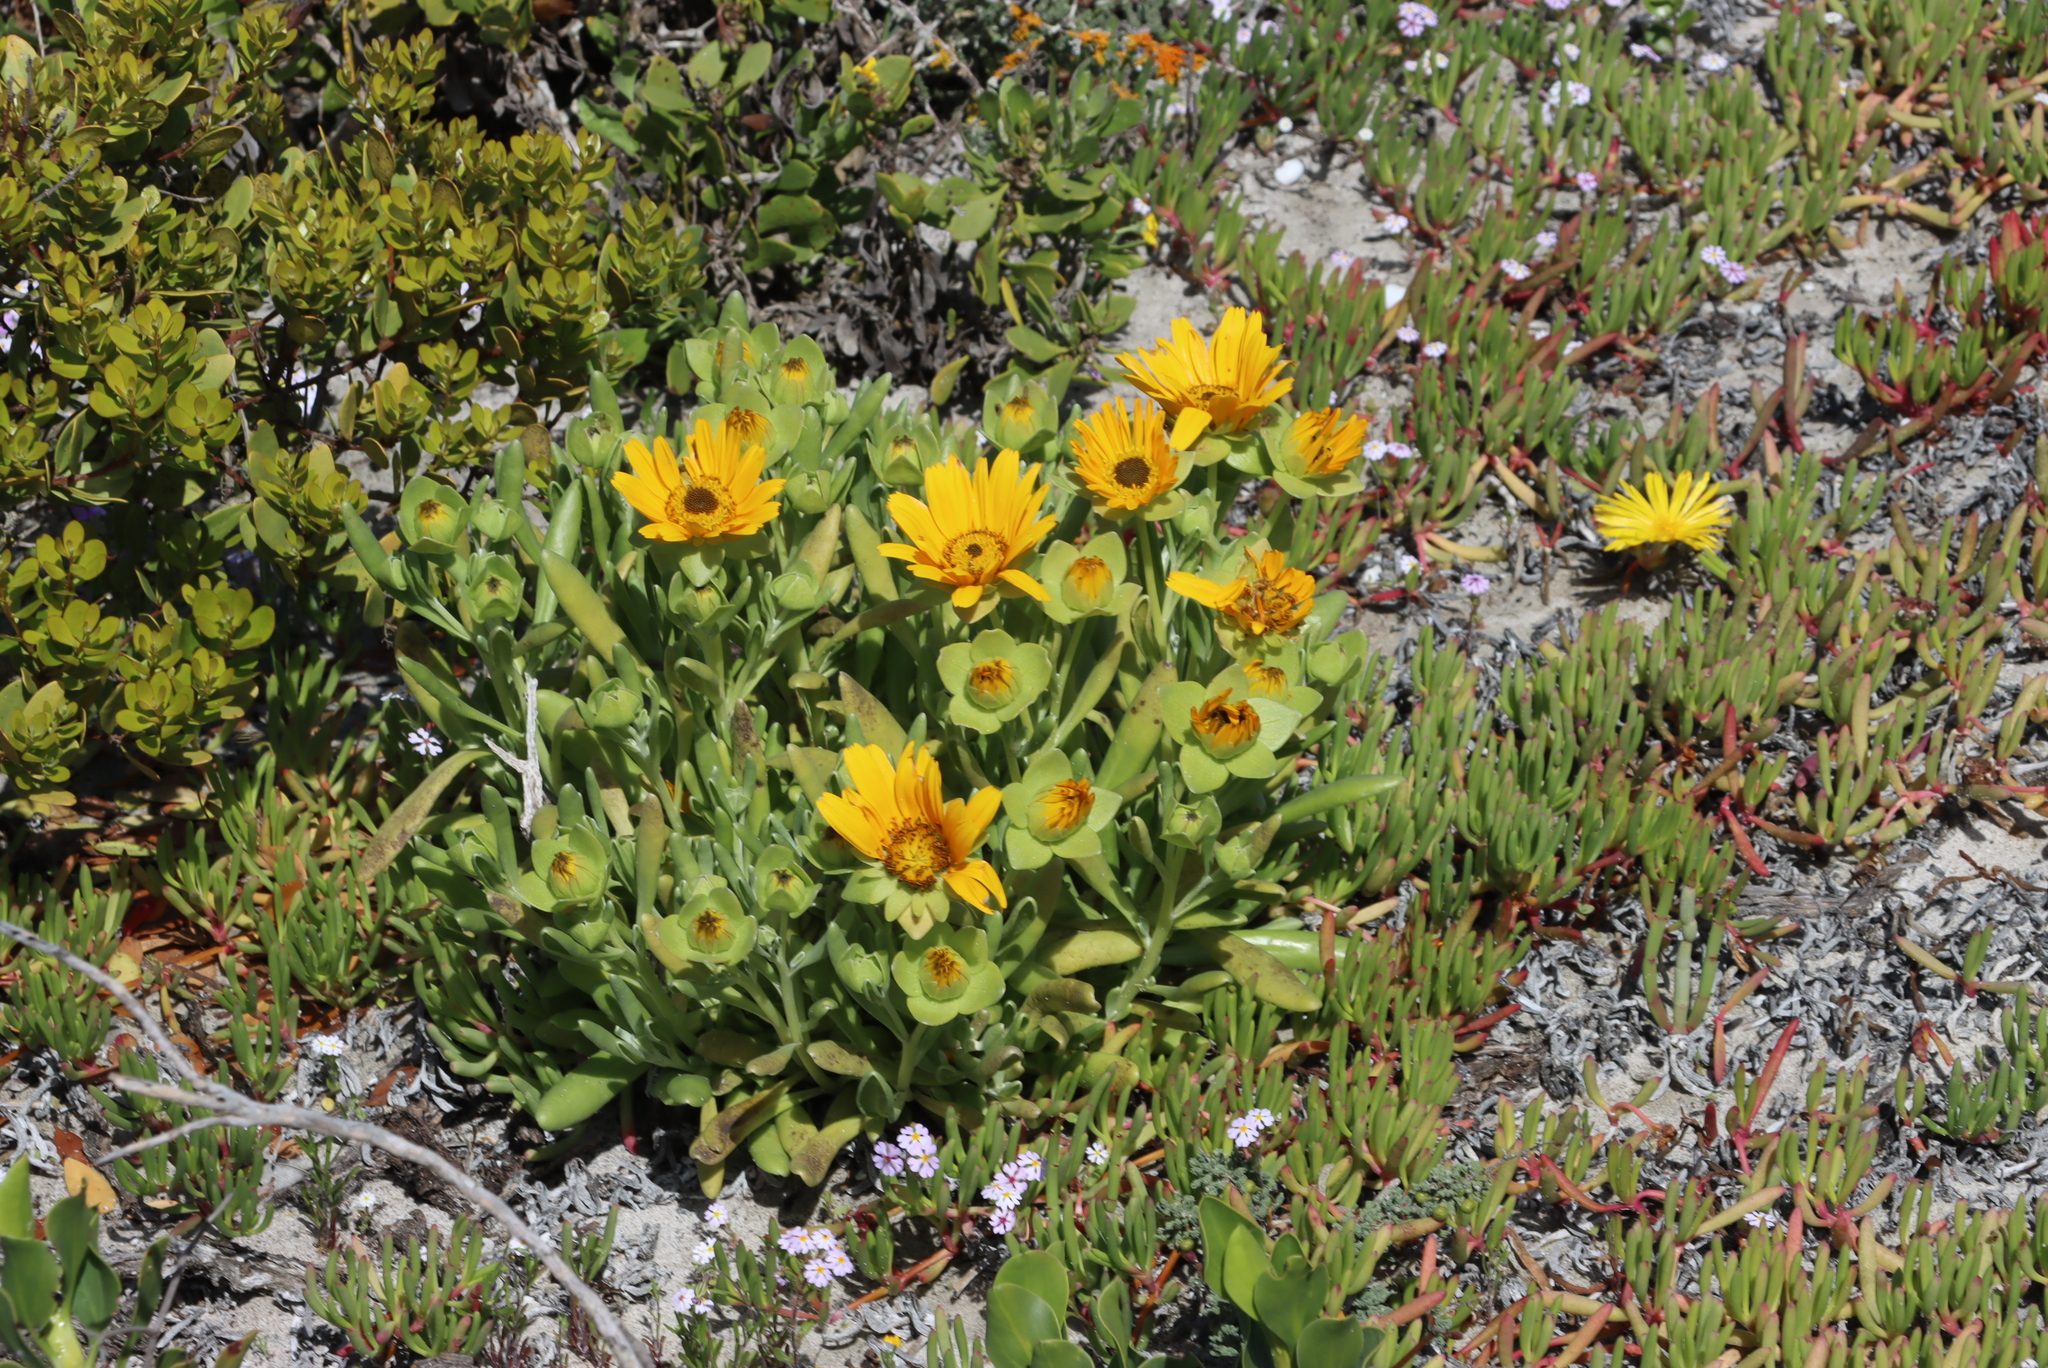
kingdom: Plantae
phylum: Tracheophyta
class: Magnoliopsida
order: Asterales
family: Asteraceae
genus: Didelta
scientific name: Didelta carnosa
